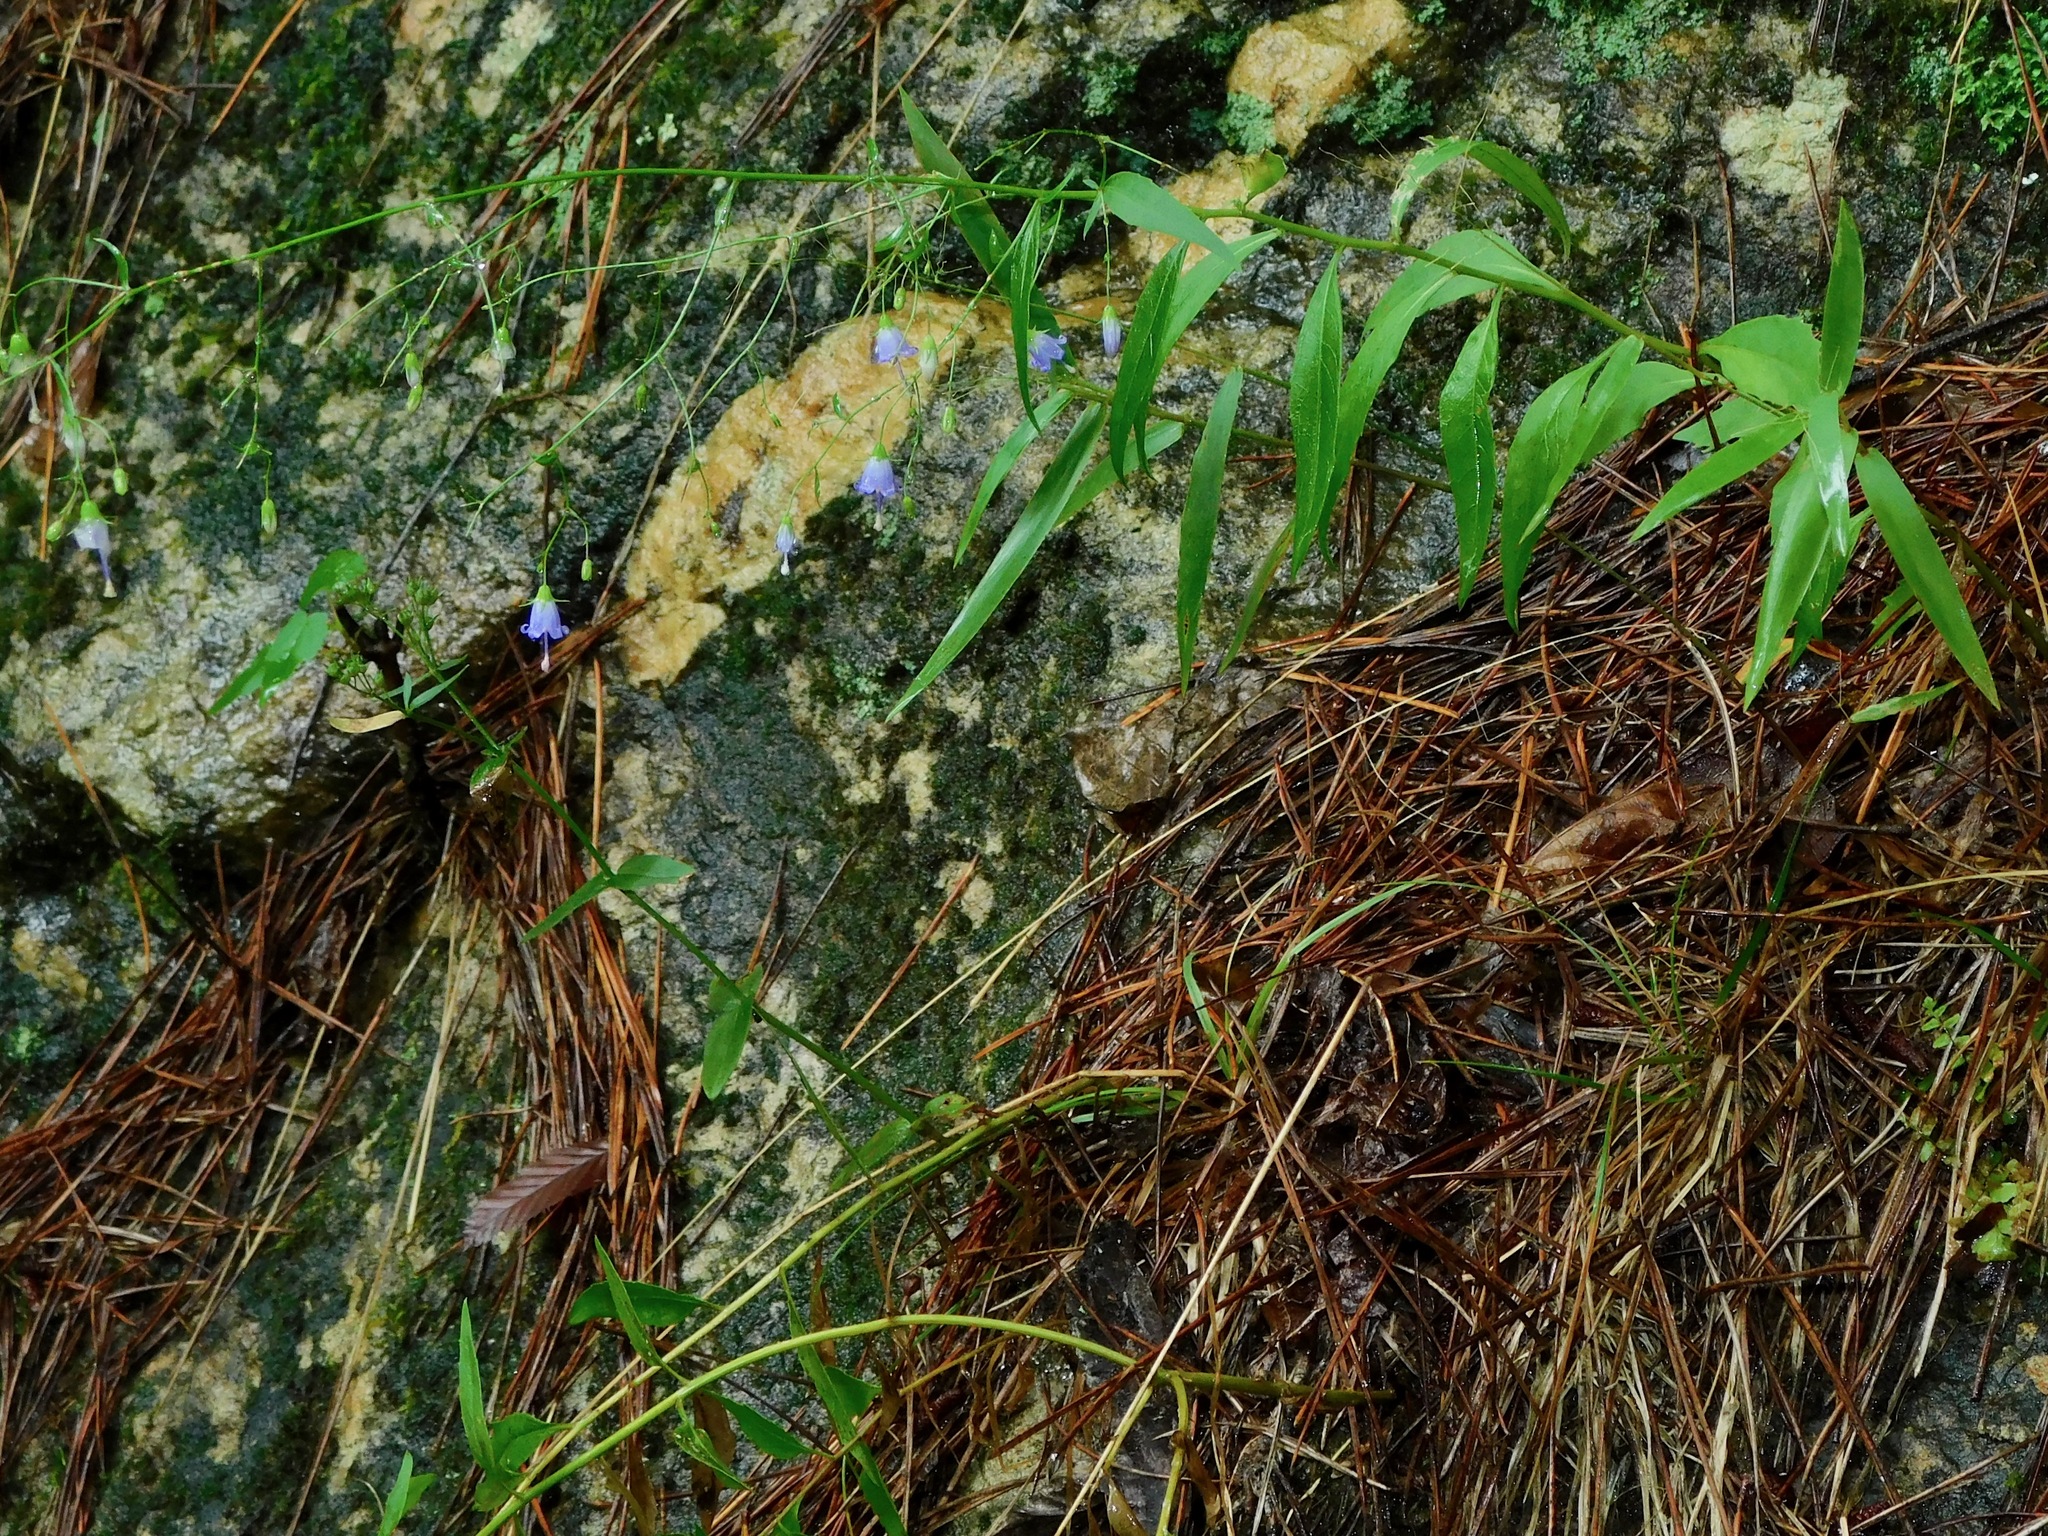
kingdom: Plantae
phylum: Tracheophyta
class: Magnoliopsida
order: Asterales
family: Campanulaceae
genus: Campanula
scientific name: Campanula divaricata
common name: Appalachian bellflower
